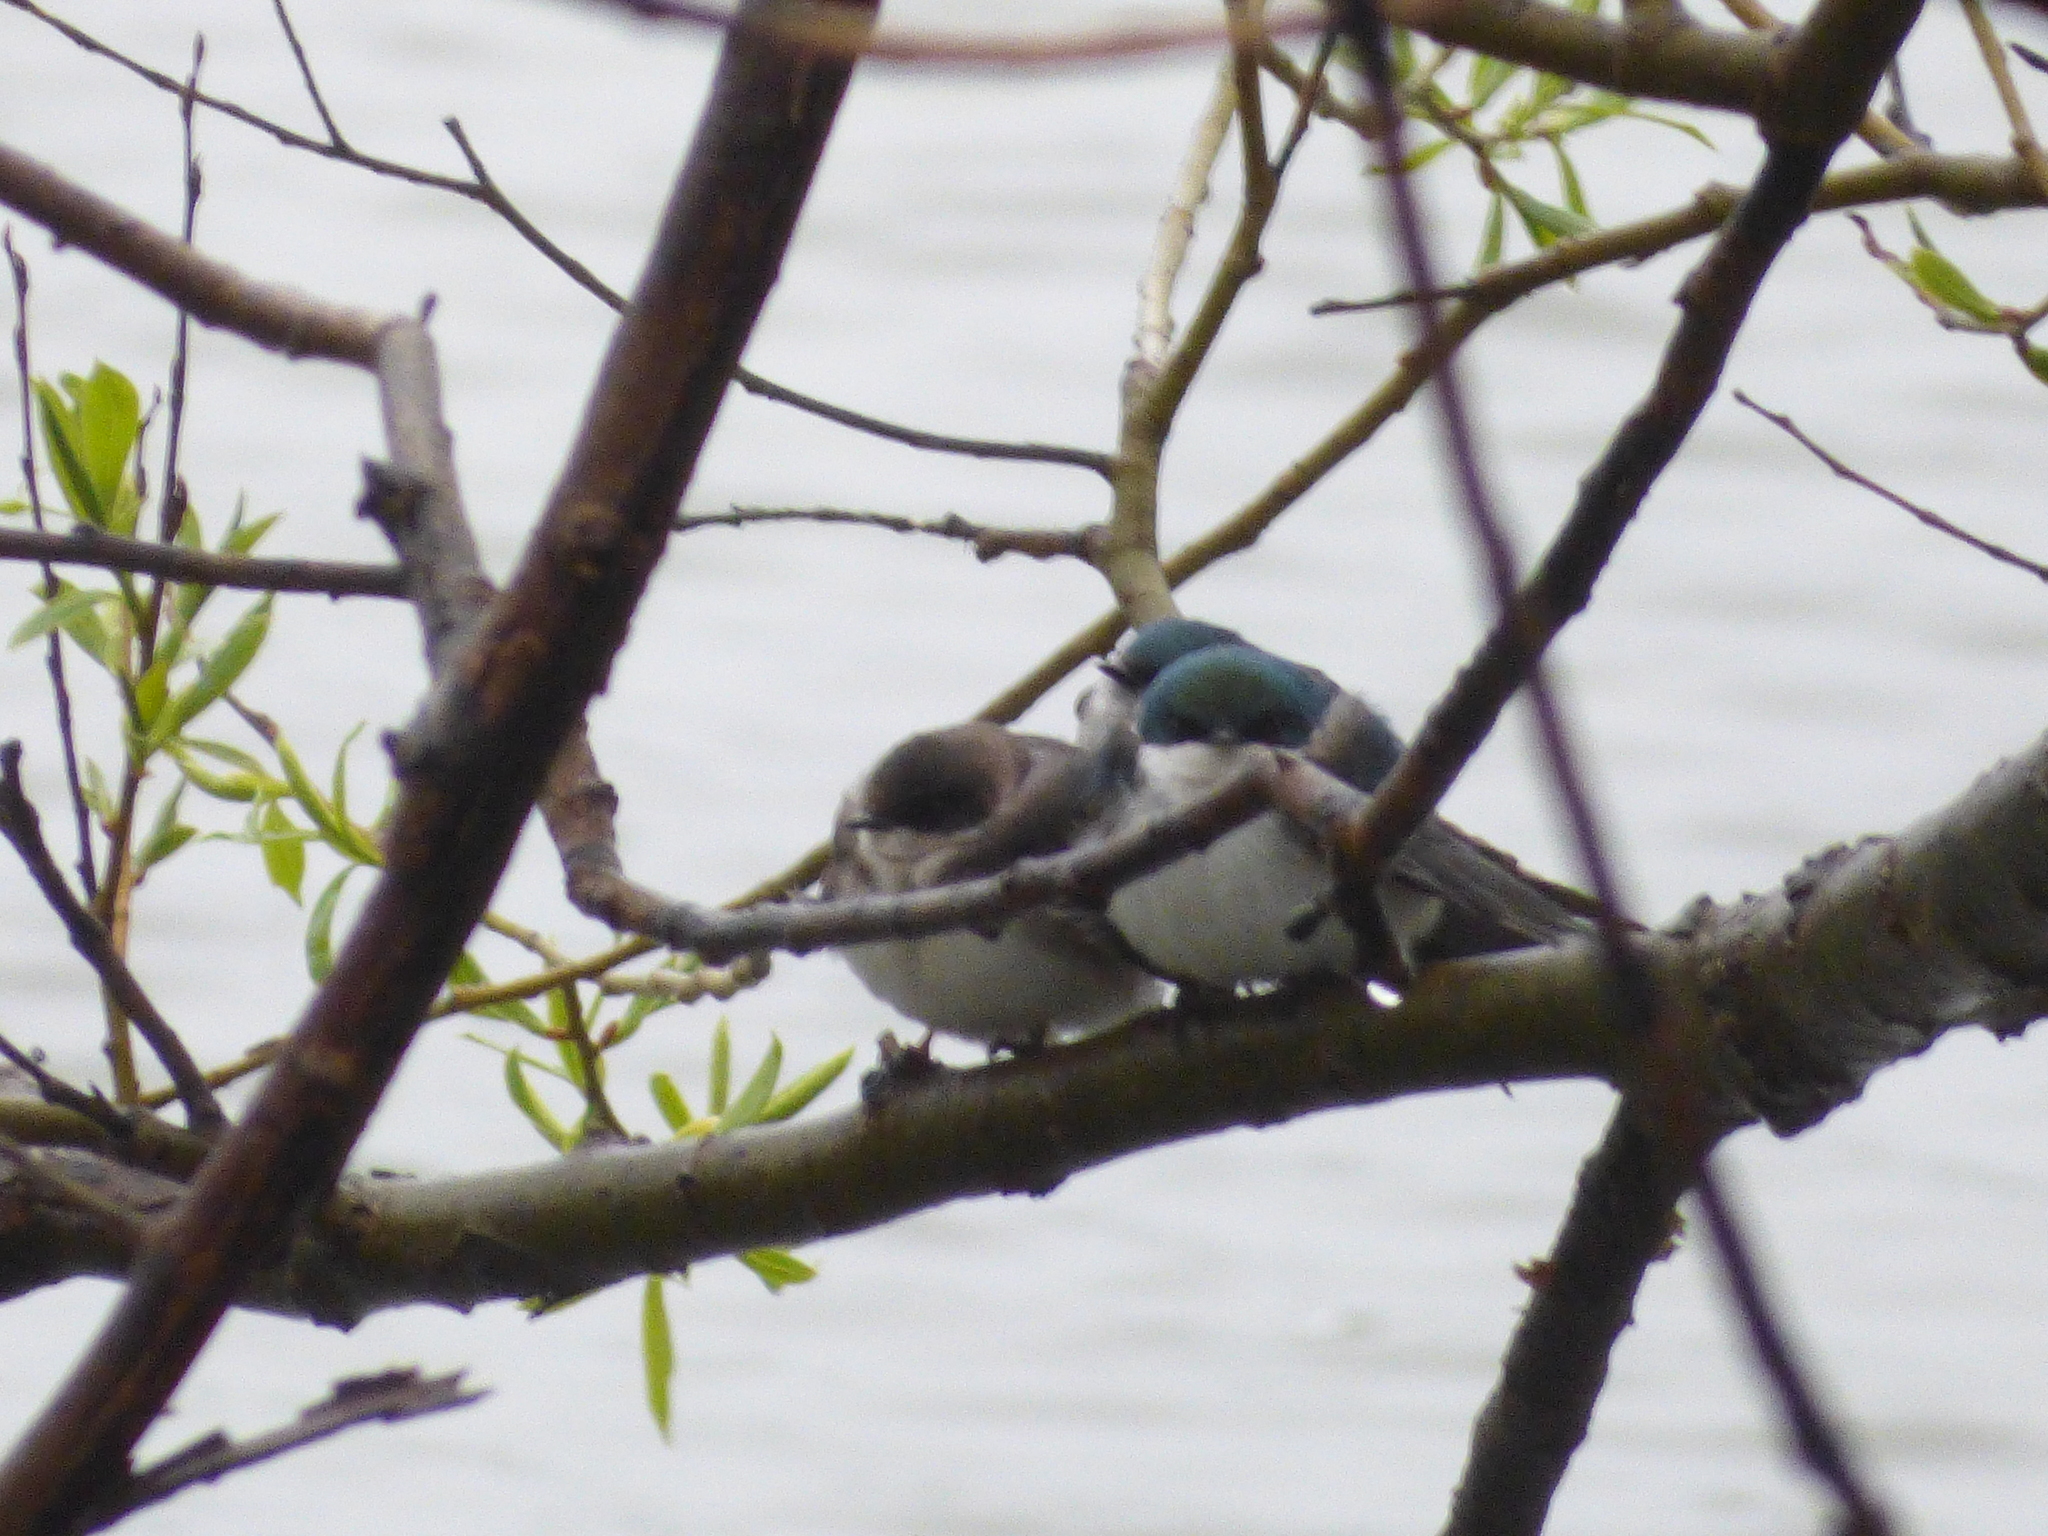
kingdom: Animalia
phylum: Chordata
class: Aves
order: Passeriformes
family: Hirundinidae
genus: Tachycineta
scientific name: Tachycineta bicolor
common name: Tree swallow
